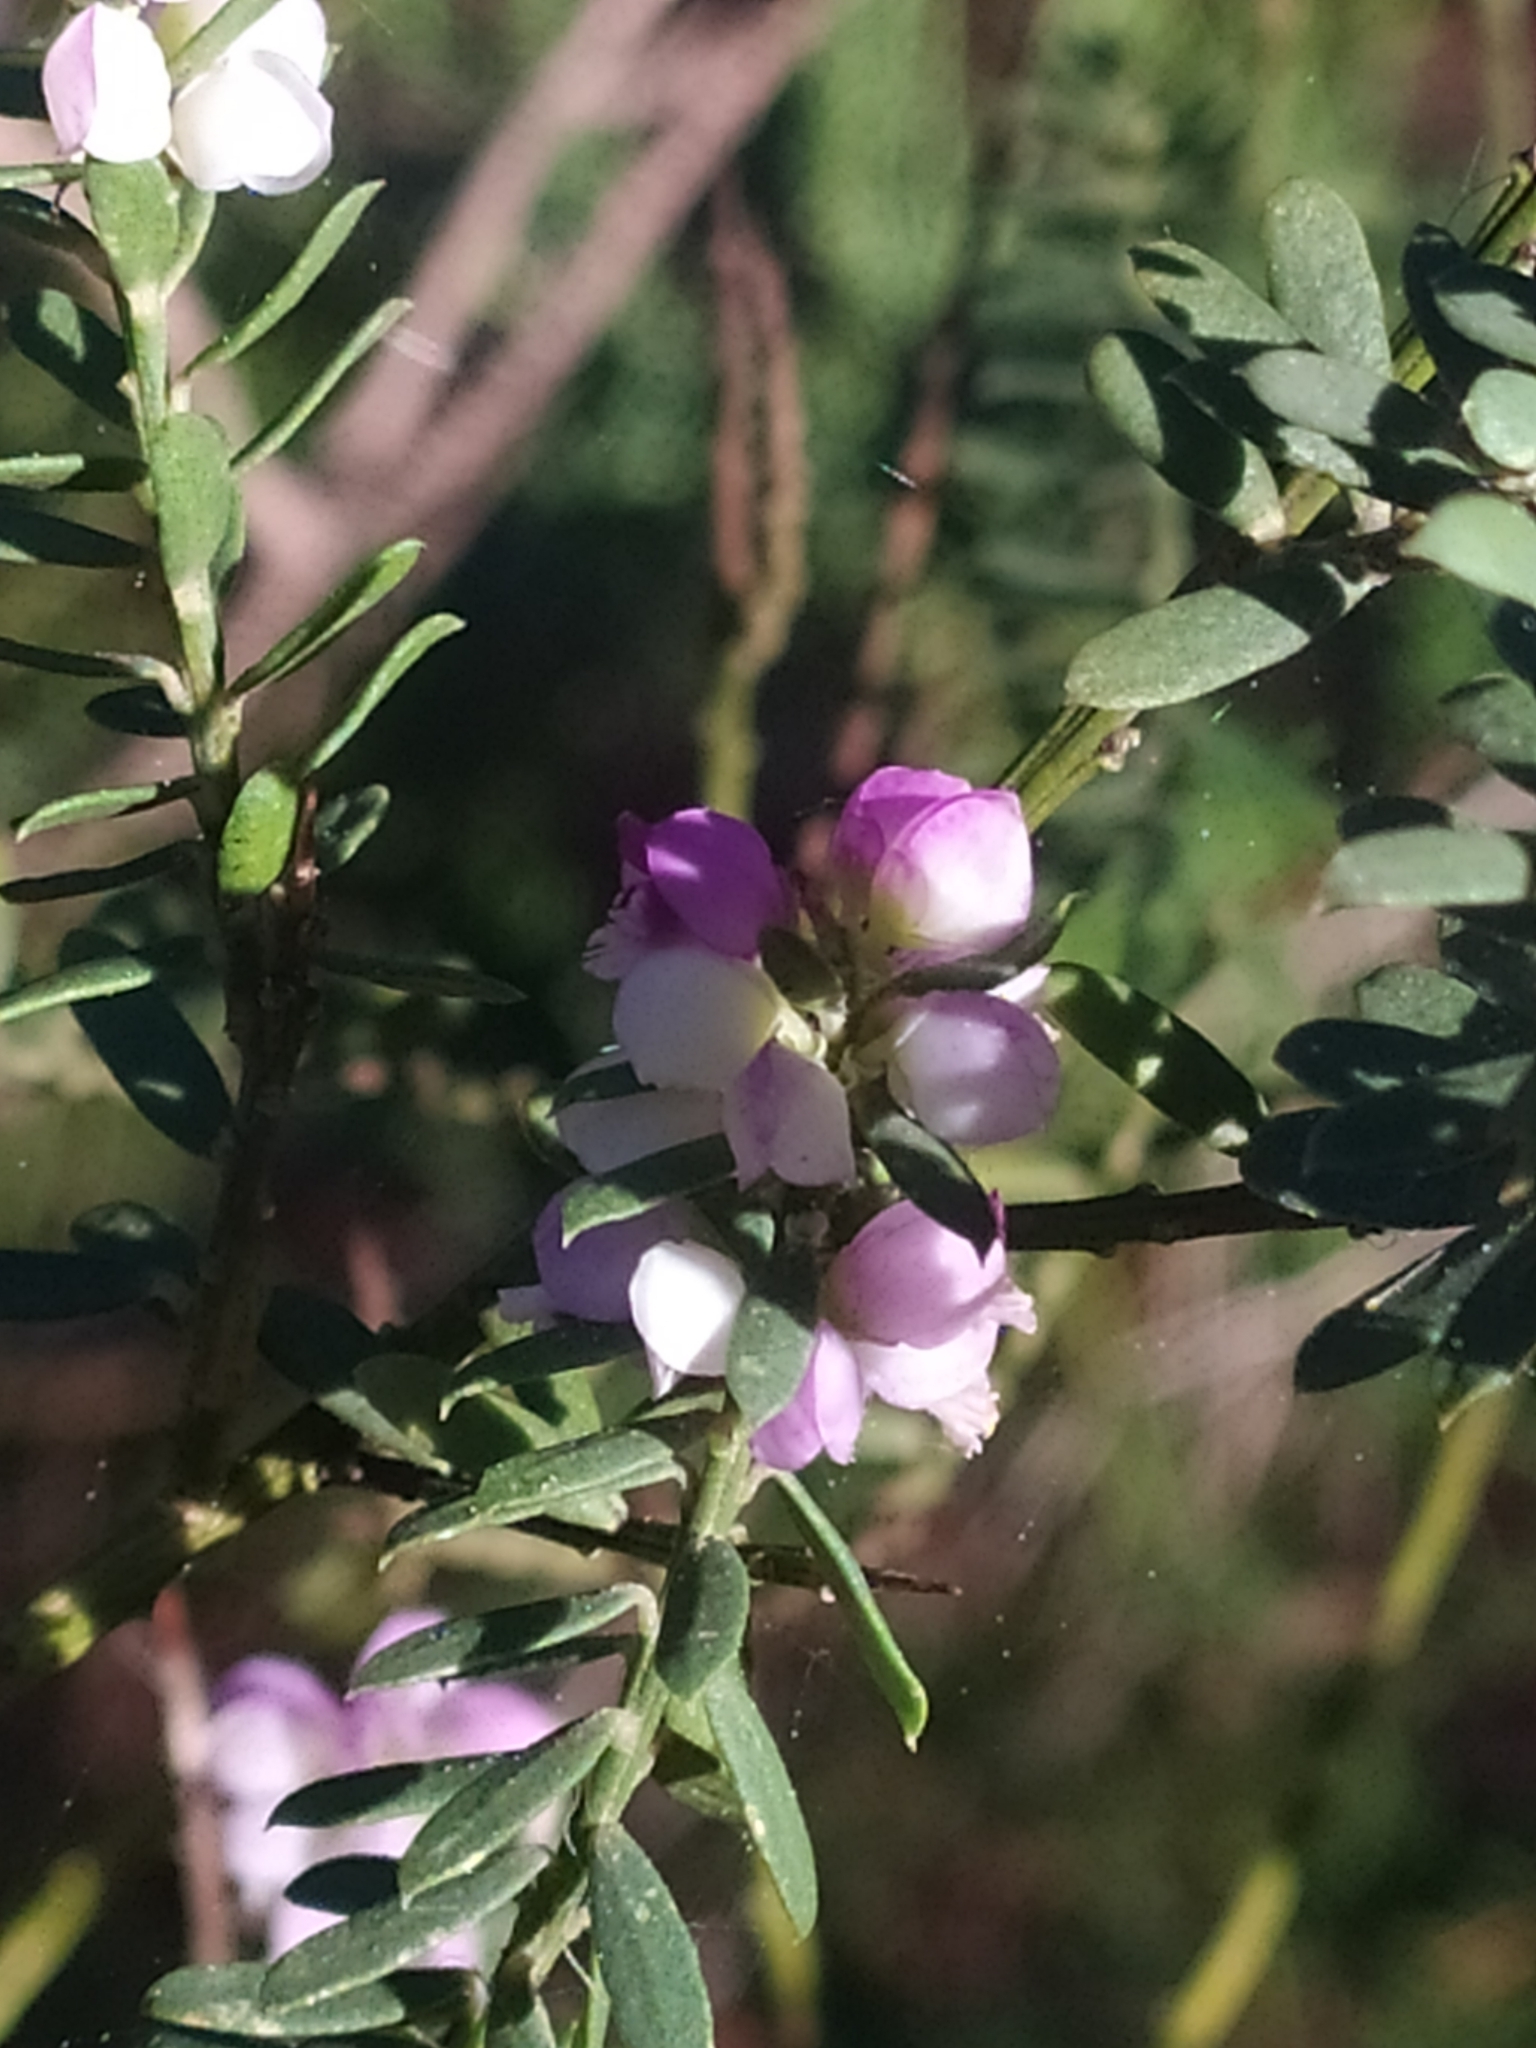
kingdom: Plantae
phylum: Tracheophyta
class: Magnoliopsida
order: Fabales
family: Polygalaceae
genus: Muraltia
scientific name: Muraltia spinosa
